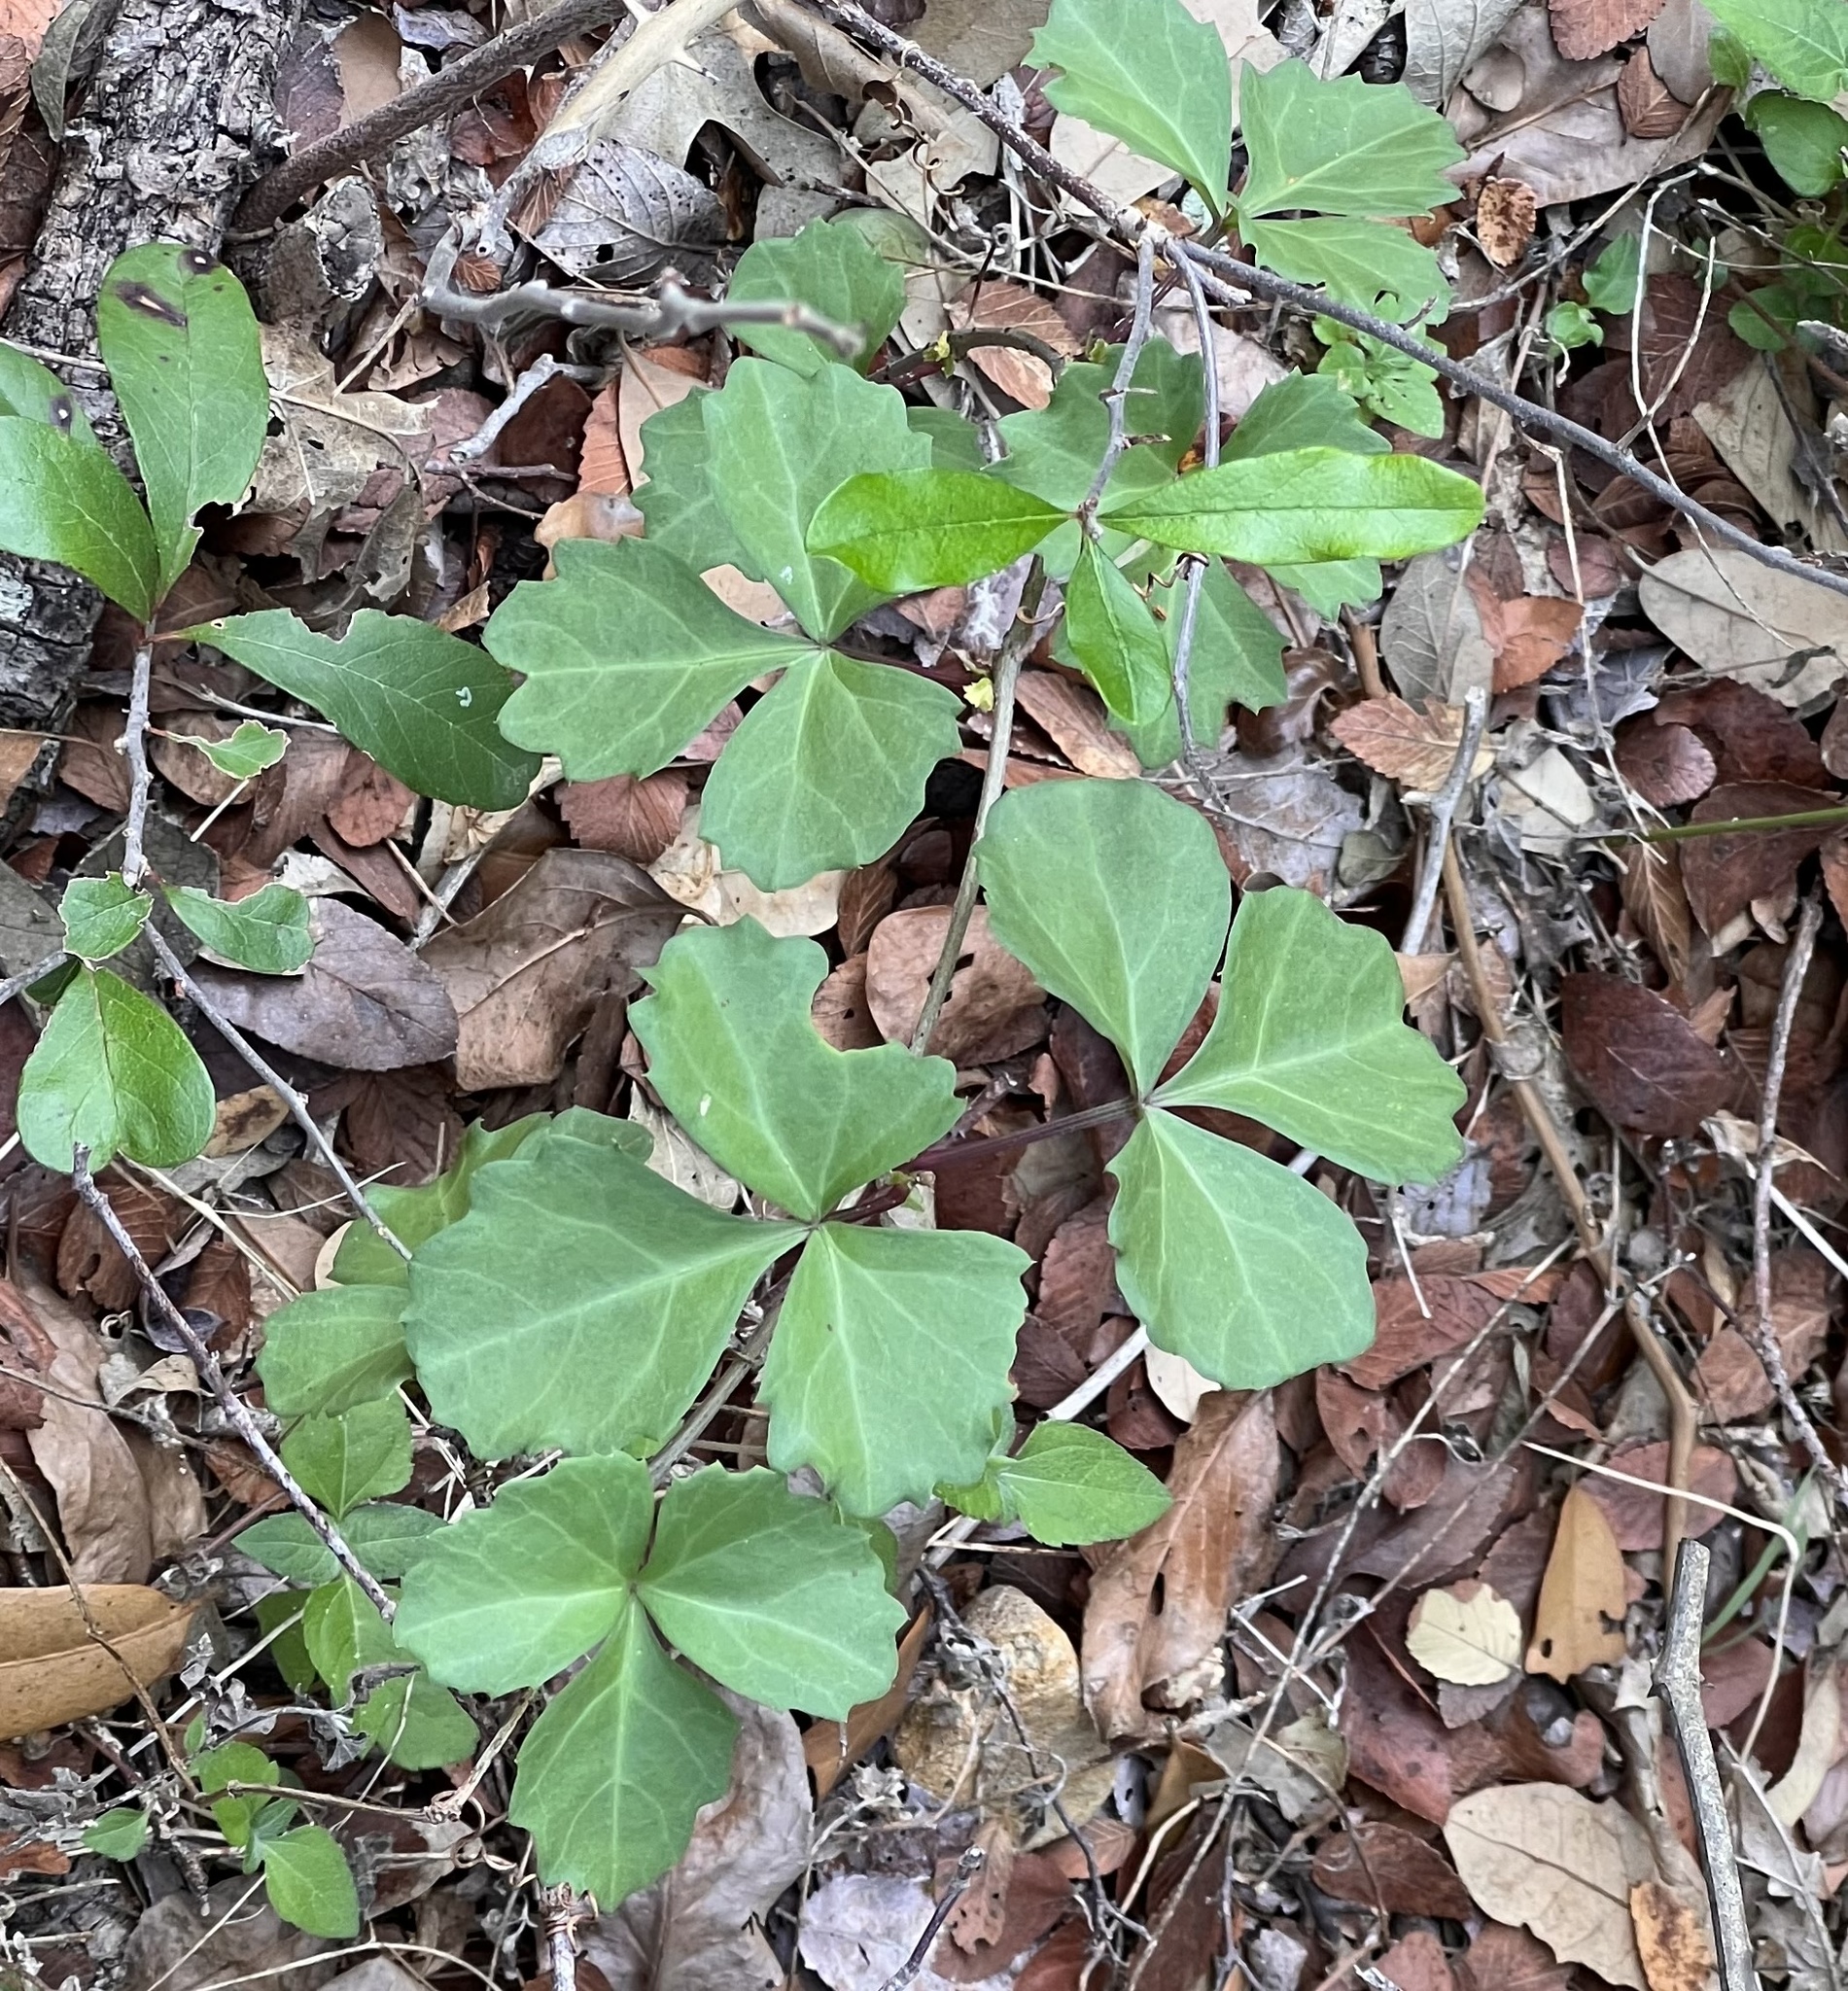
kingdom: Plantae
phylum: Tracheophyta
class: Magnoliopsida
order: Vitales
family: Vitaceae
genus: Cissus
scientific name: Cissus trifoliata
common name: Vine-sorrel
